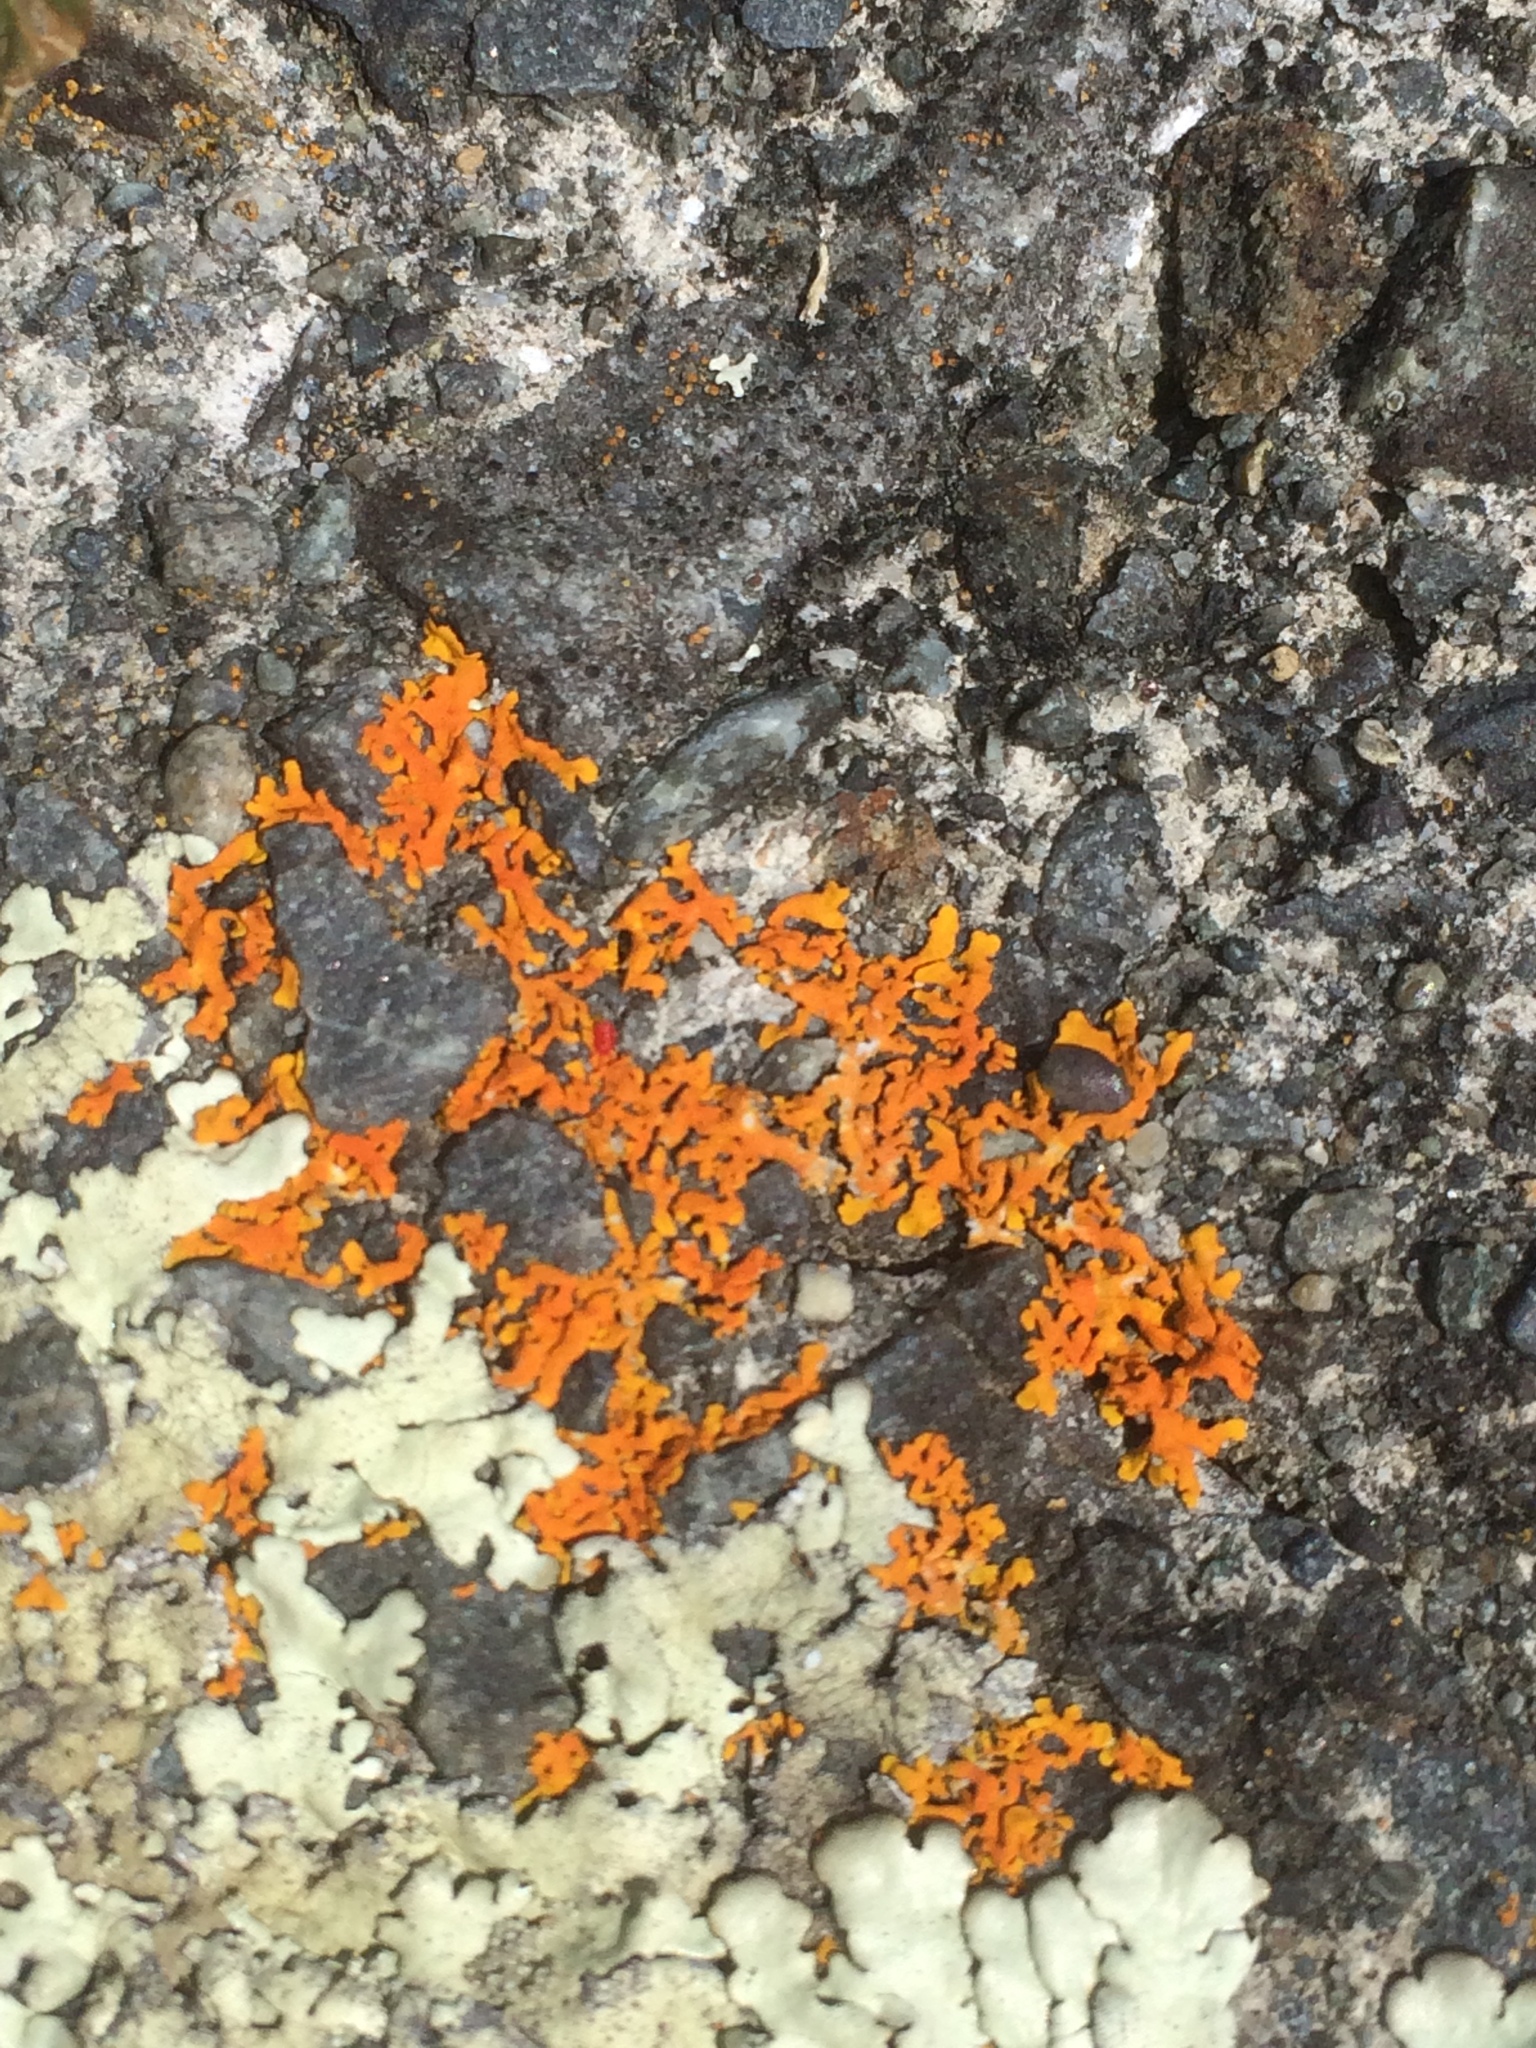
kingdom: Fungi
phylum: Ascomycota
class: Lecanoromycetes
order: Teloschistales
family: Teloschistaceae
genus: Dufourea
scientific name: Dufourea ligulata
